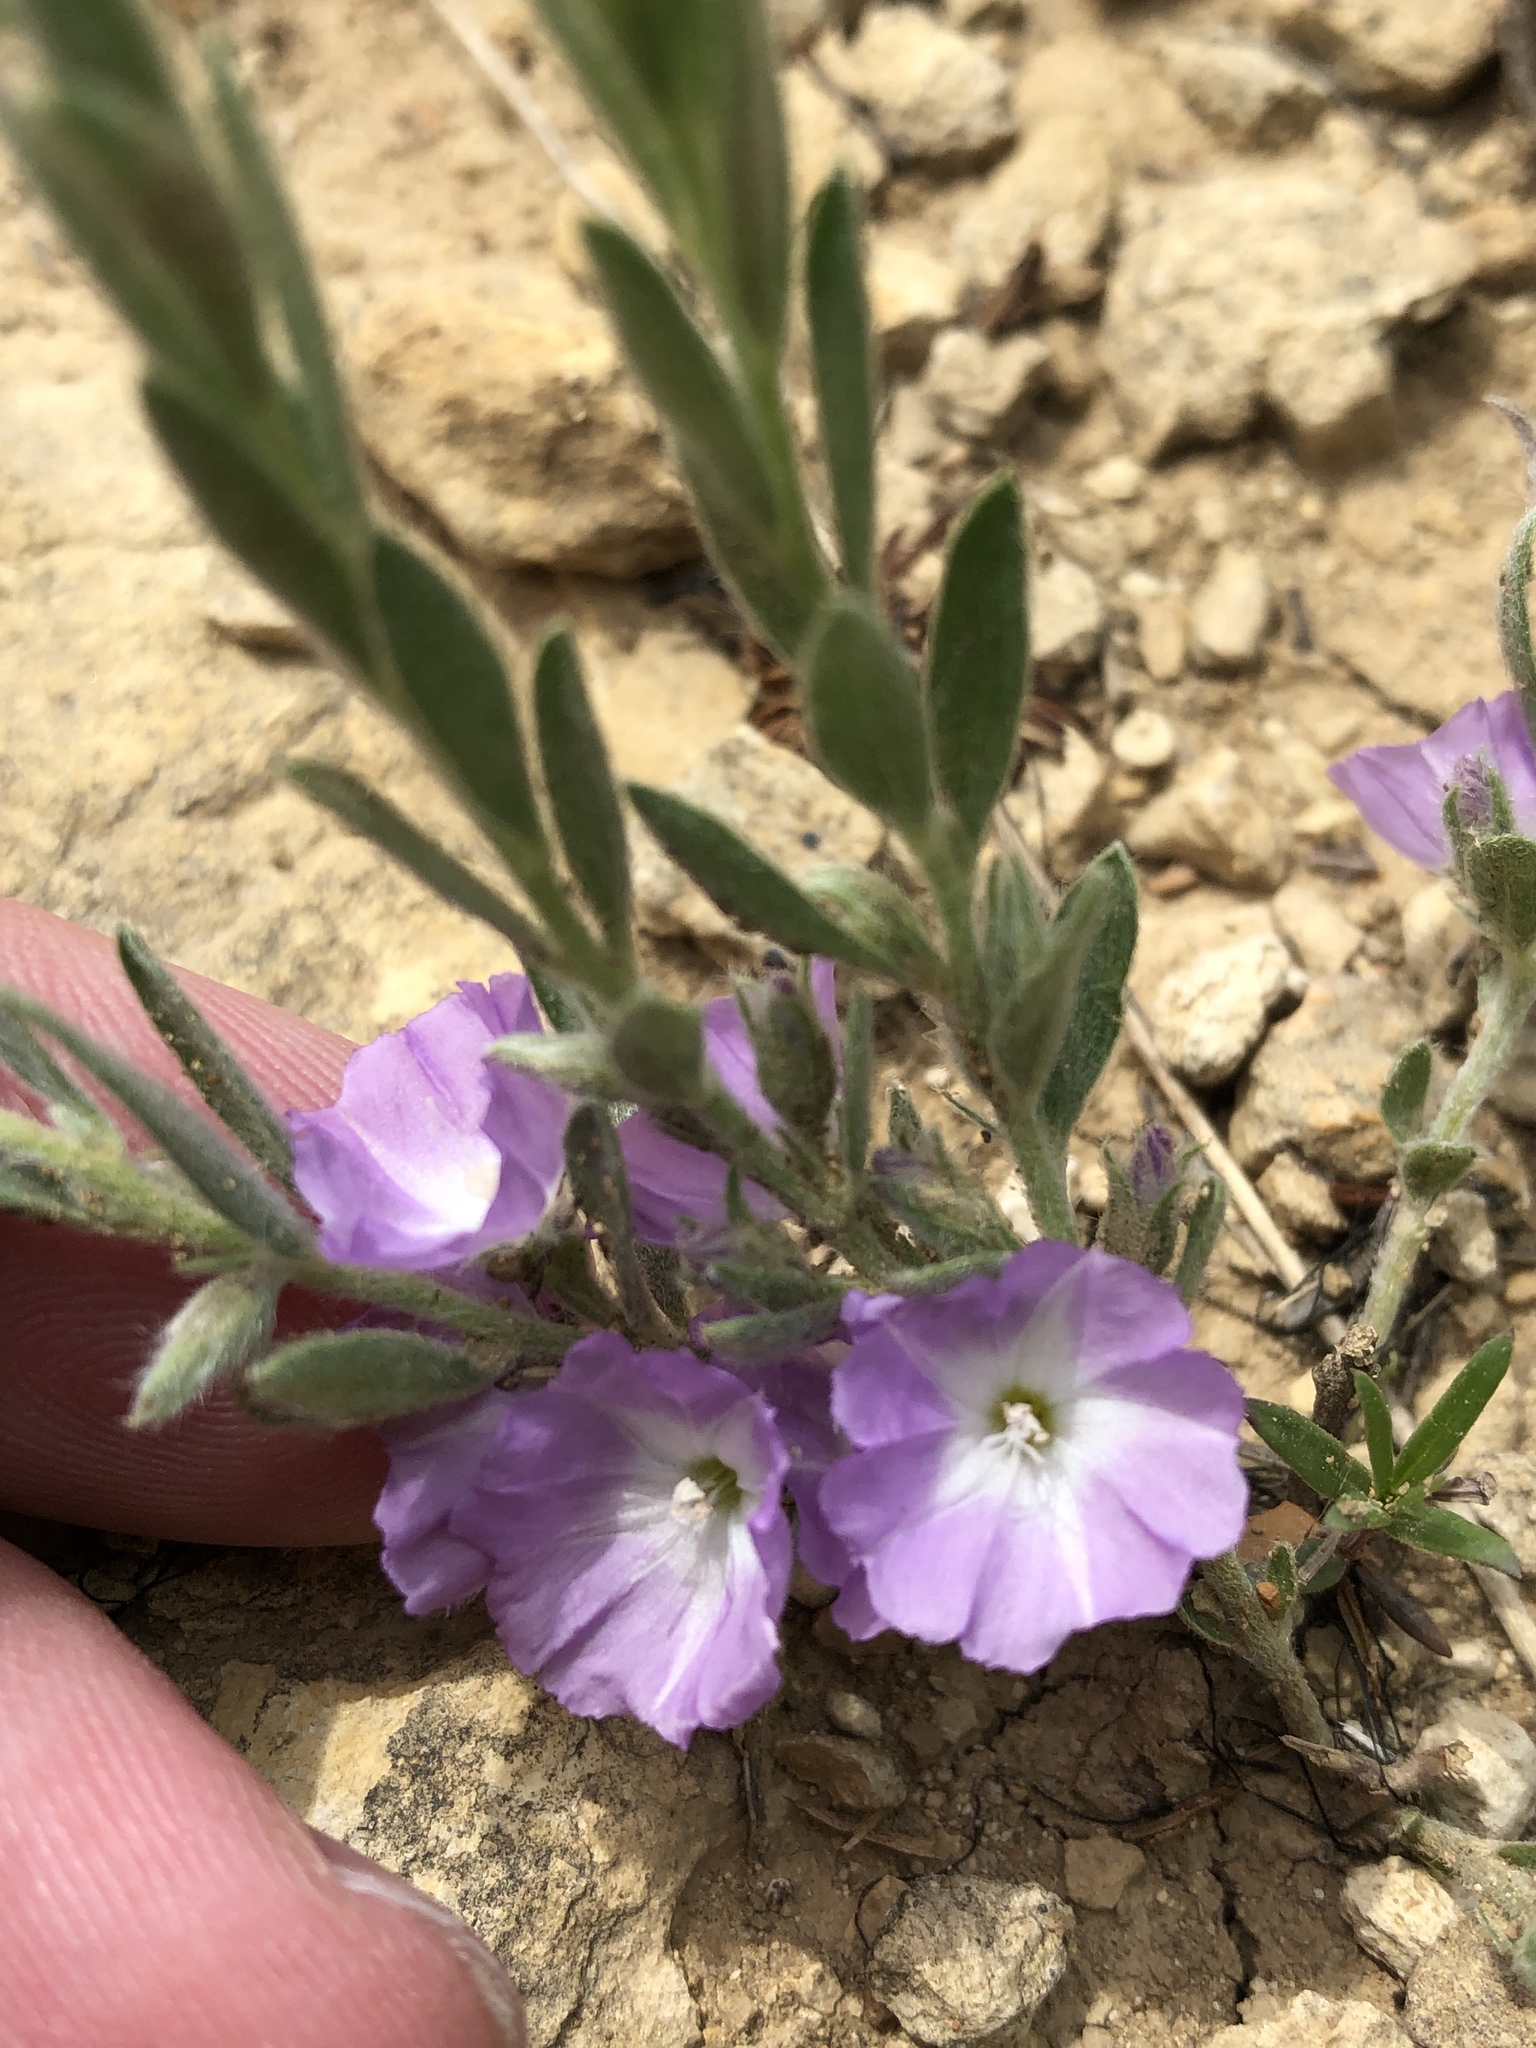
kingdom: Plantae
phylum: Tracheophyta
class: Magnoliopsida
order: Solanales
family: Convolvulaceae
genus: Evolvulus
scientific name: Evolvulus nuttallianus
